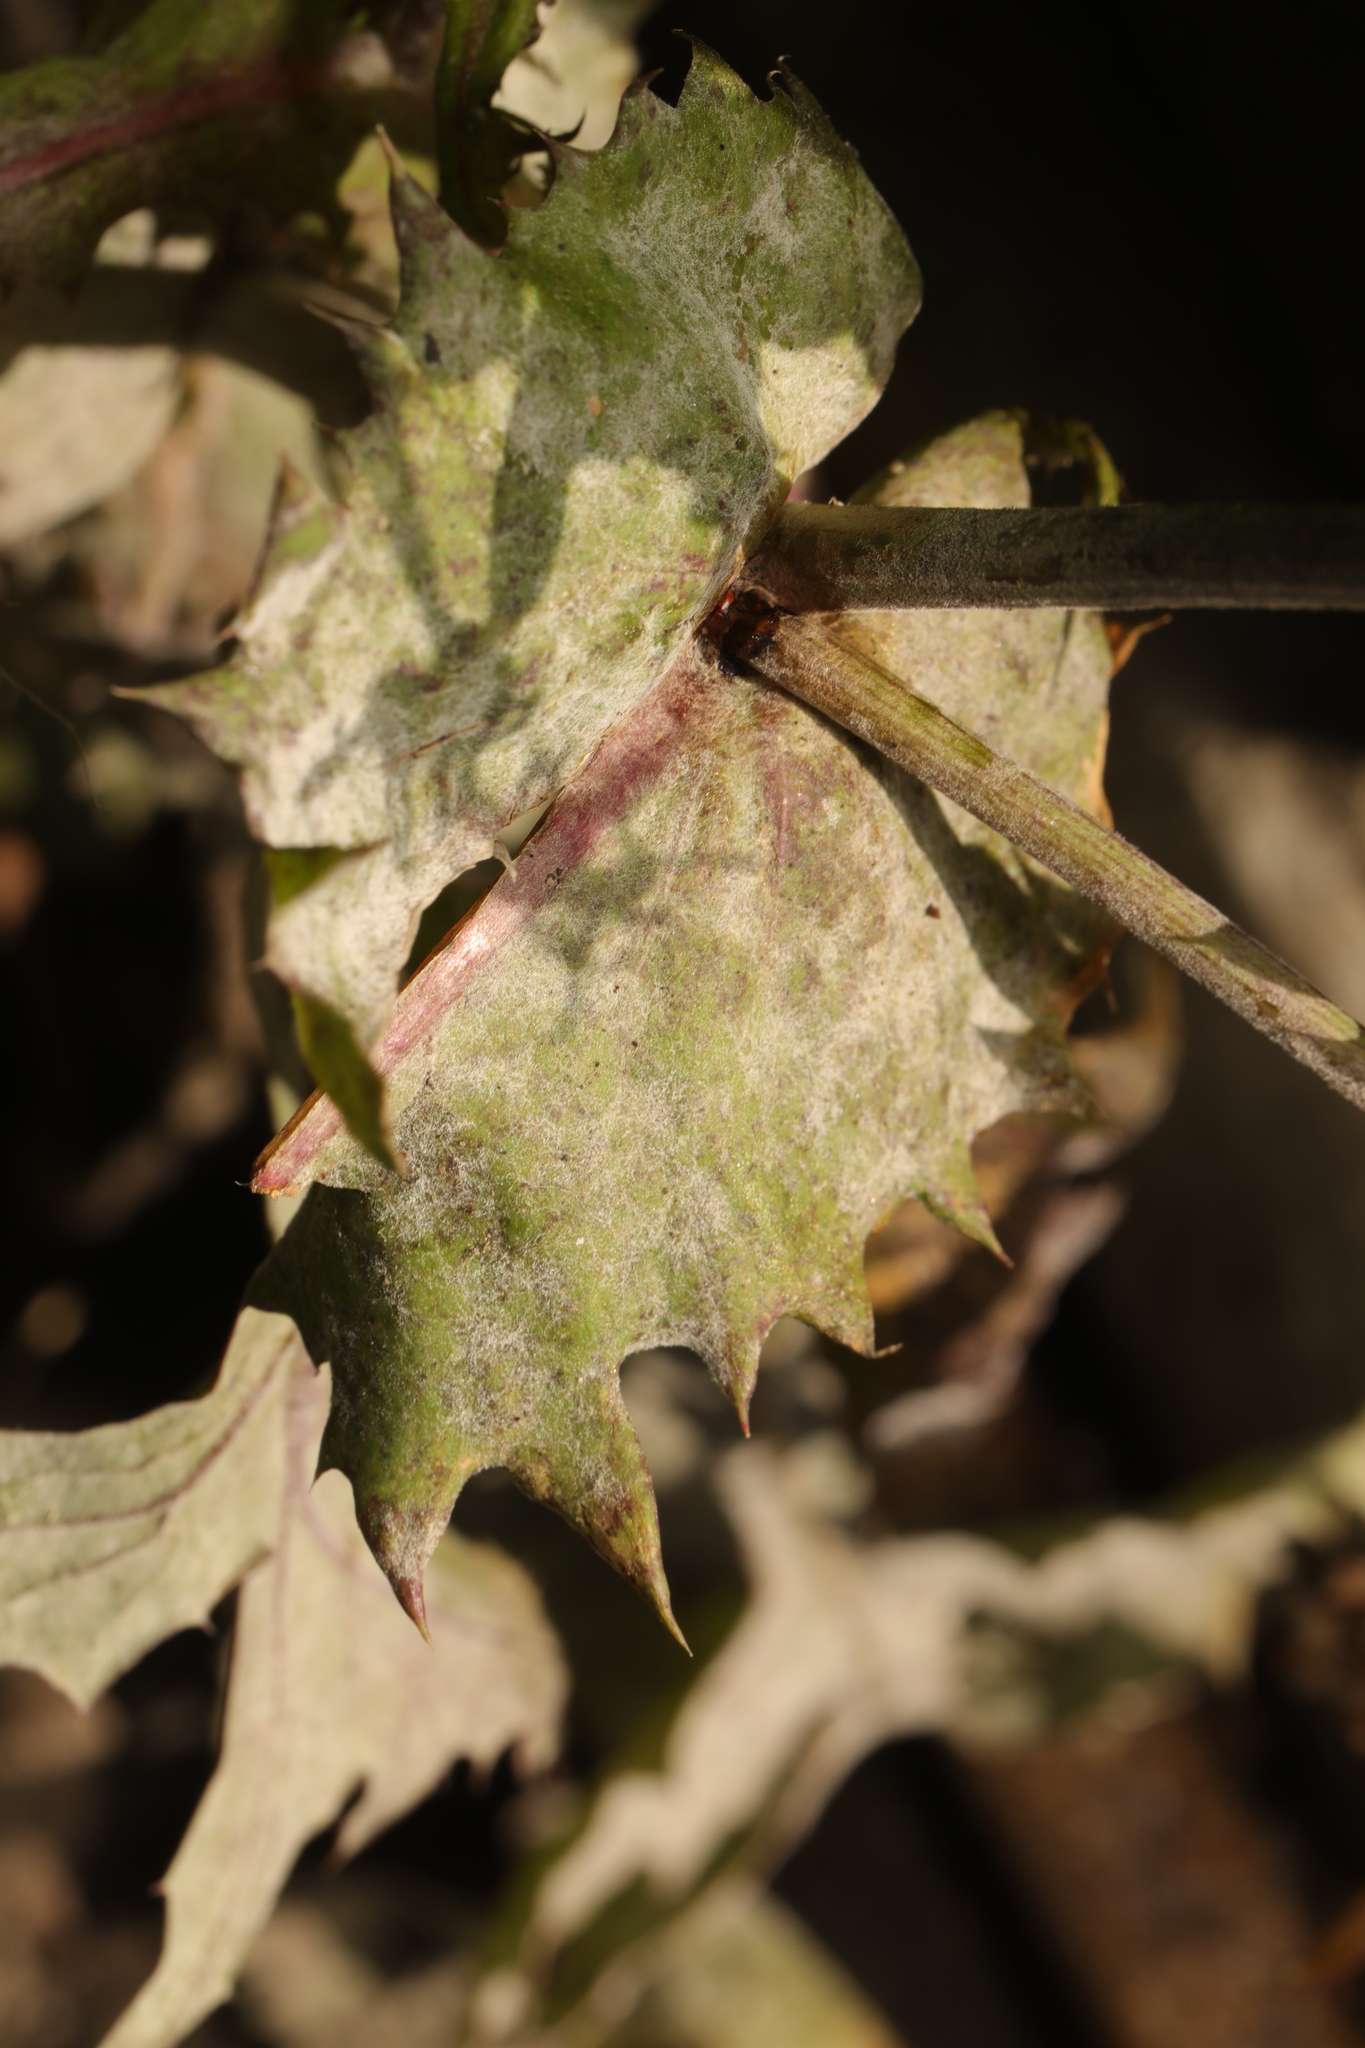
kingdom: Fungi
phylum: Ascomycota
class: Leotiomycetes
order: Helotiales
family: Erysiphaceae
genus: Golovinomyces
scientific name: Golovinomyces sonchicola
